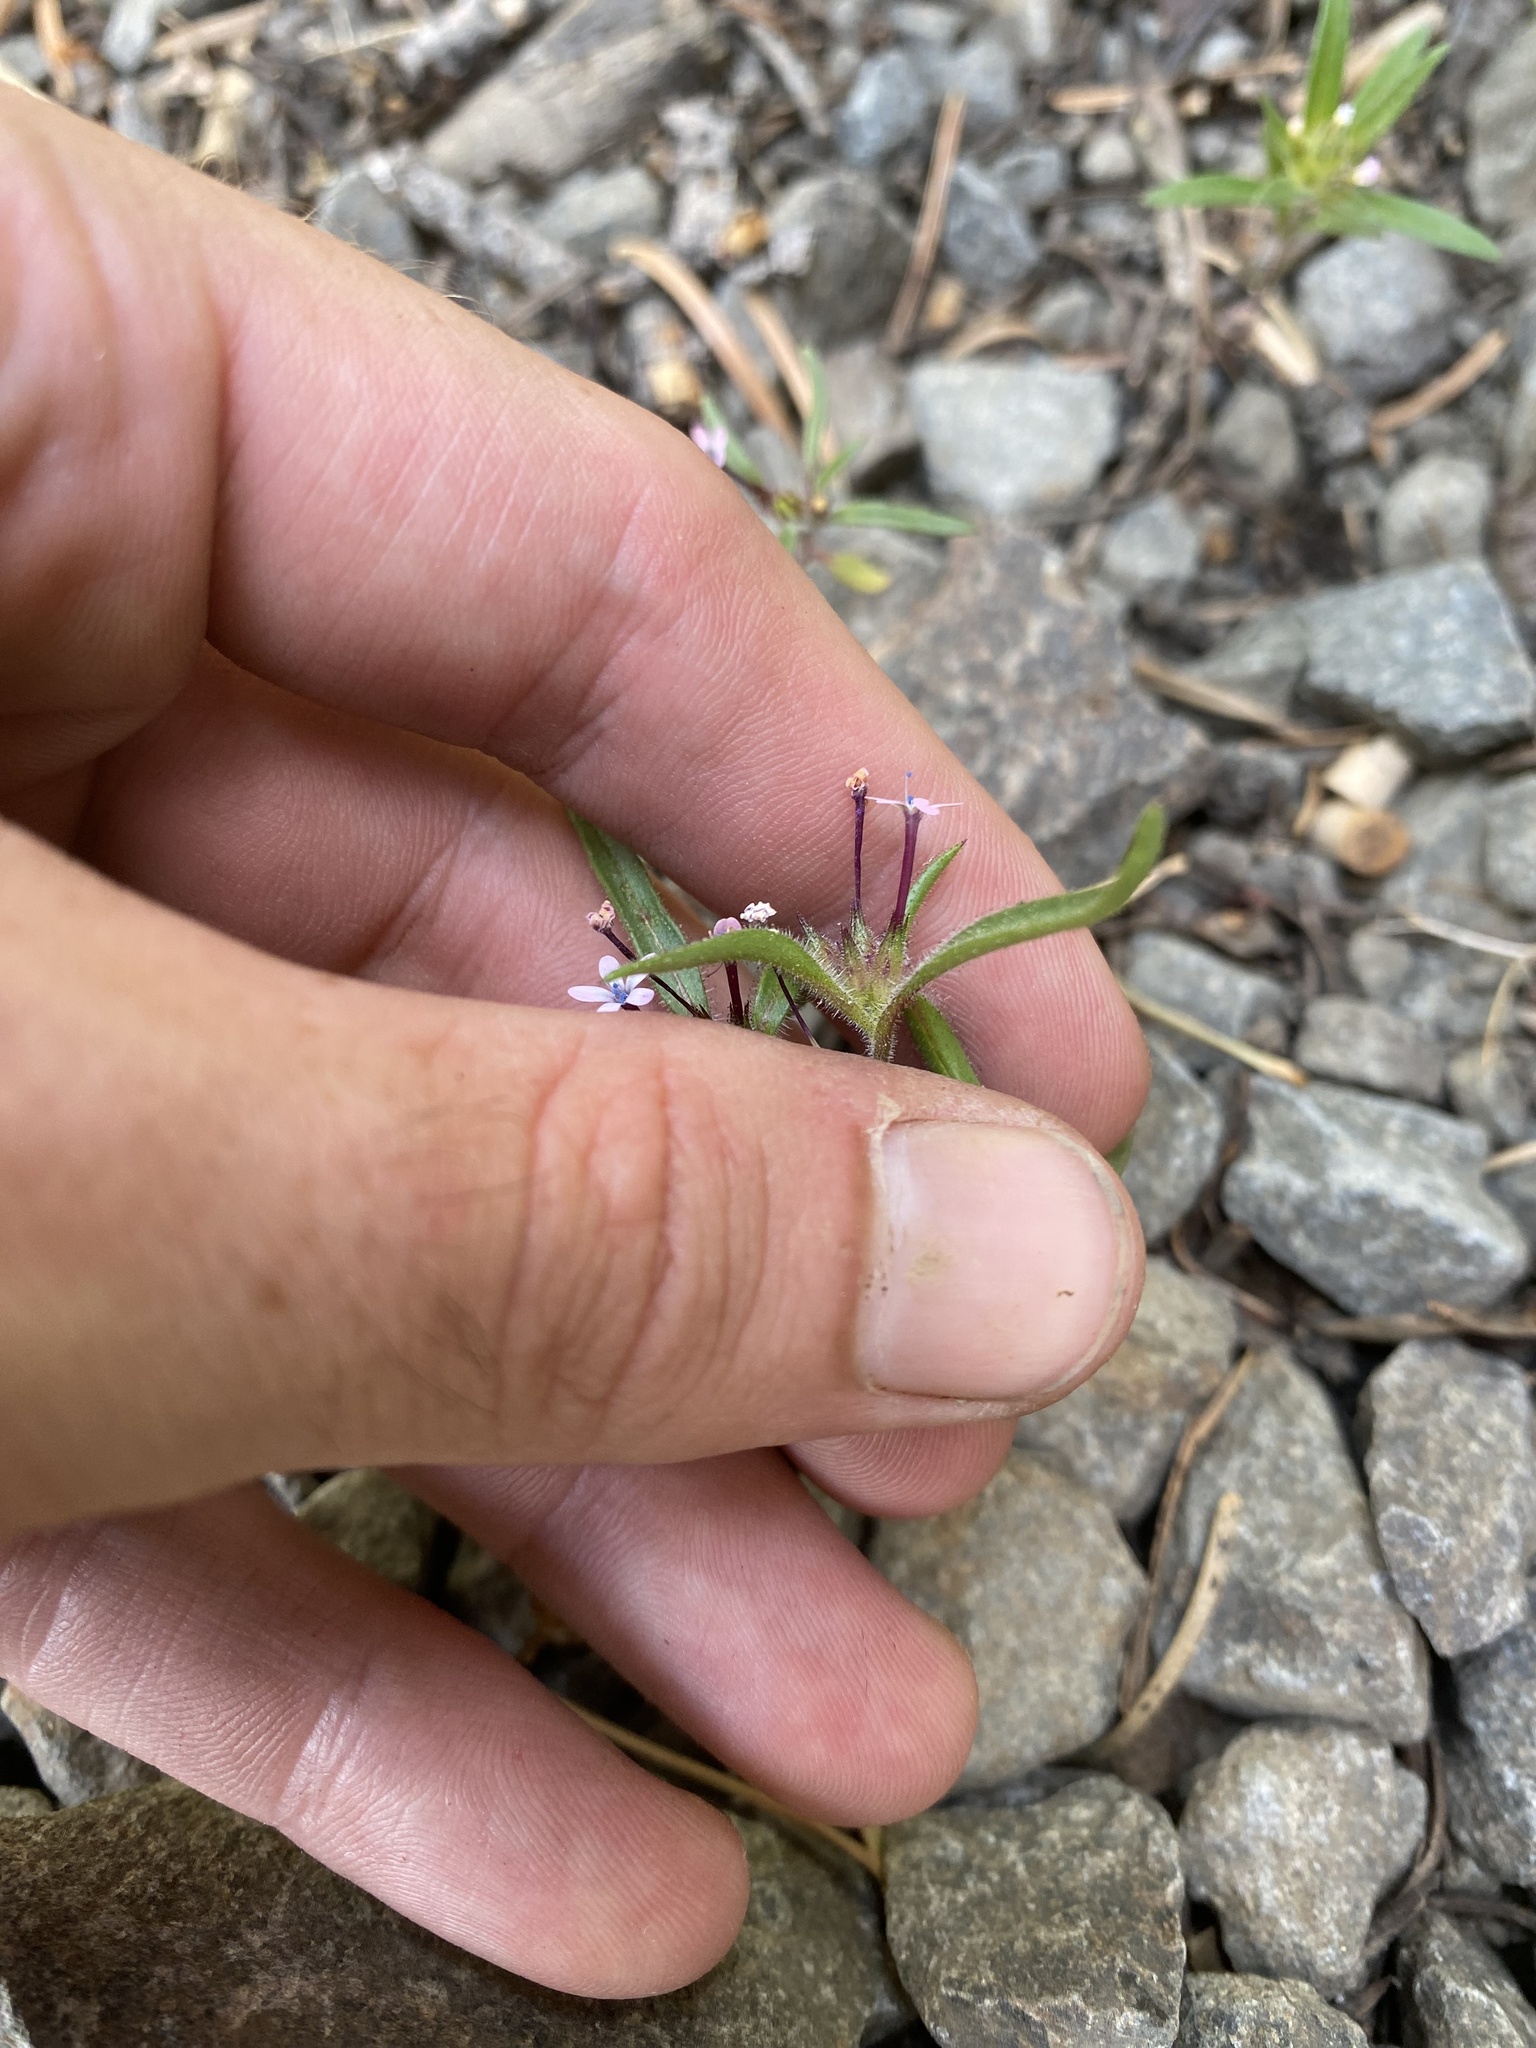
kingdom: Plantae
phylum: Tracheophyta
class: Magnoliopsida
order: Ericales
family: Polemoniaceae
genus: Collomia
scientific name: Collomia tinctoria
